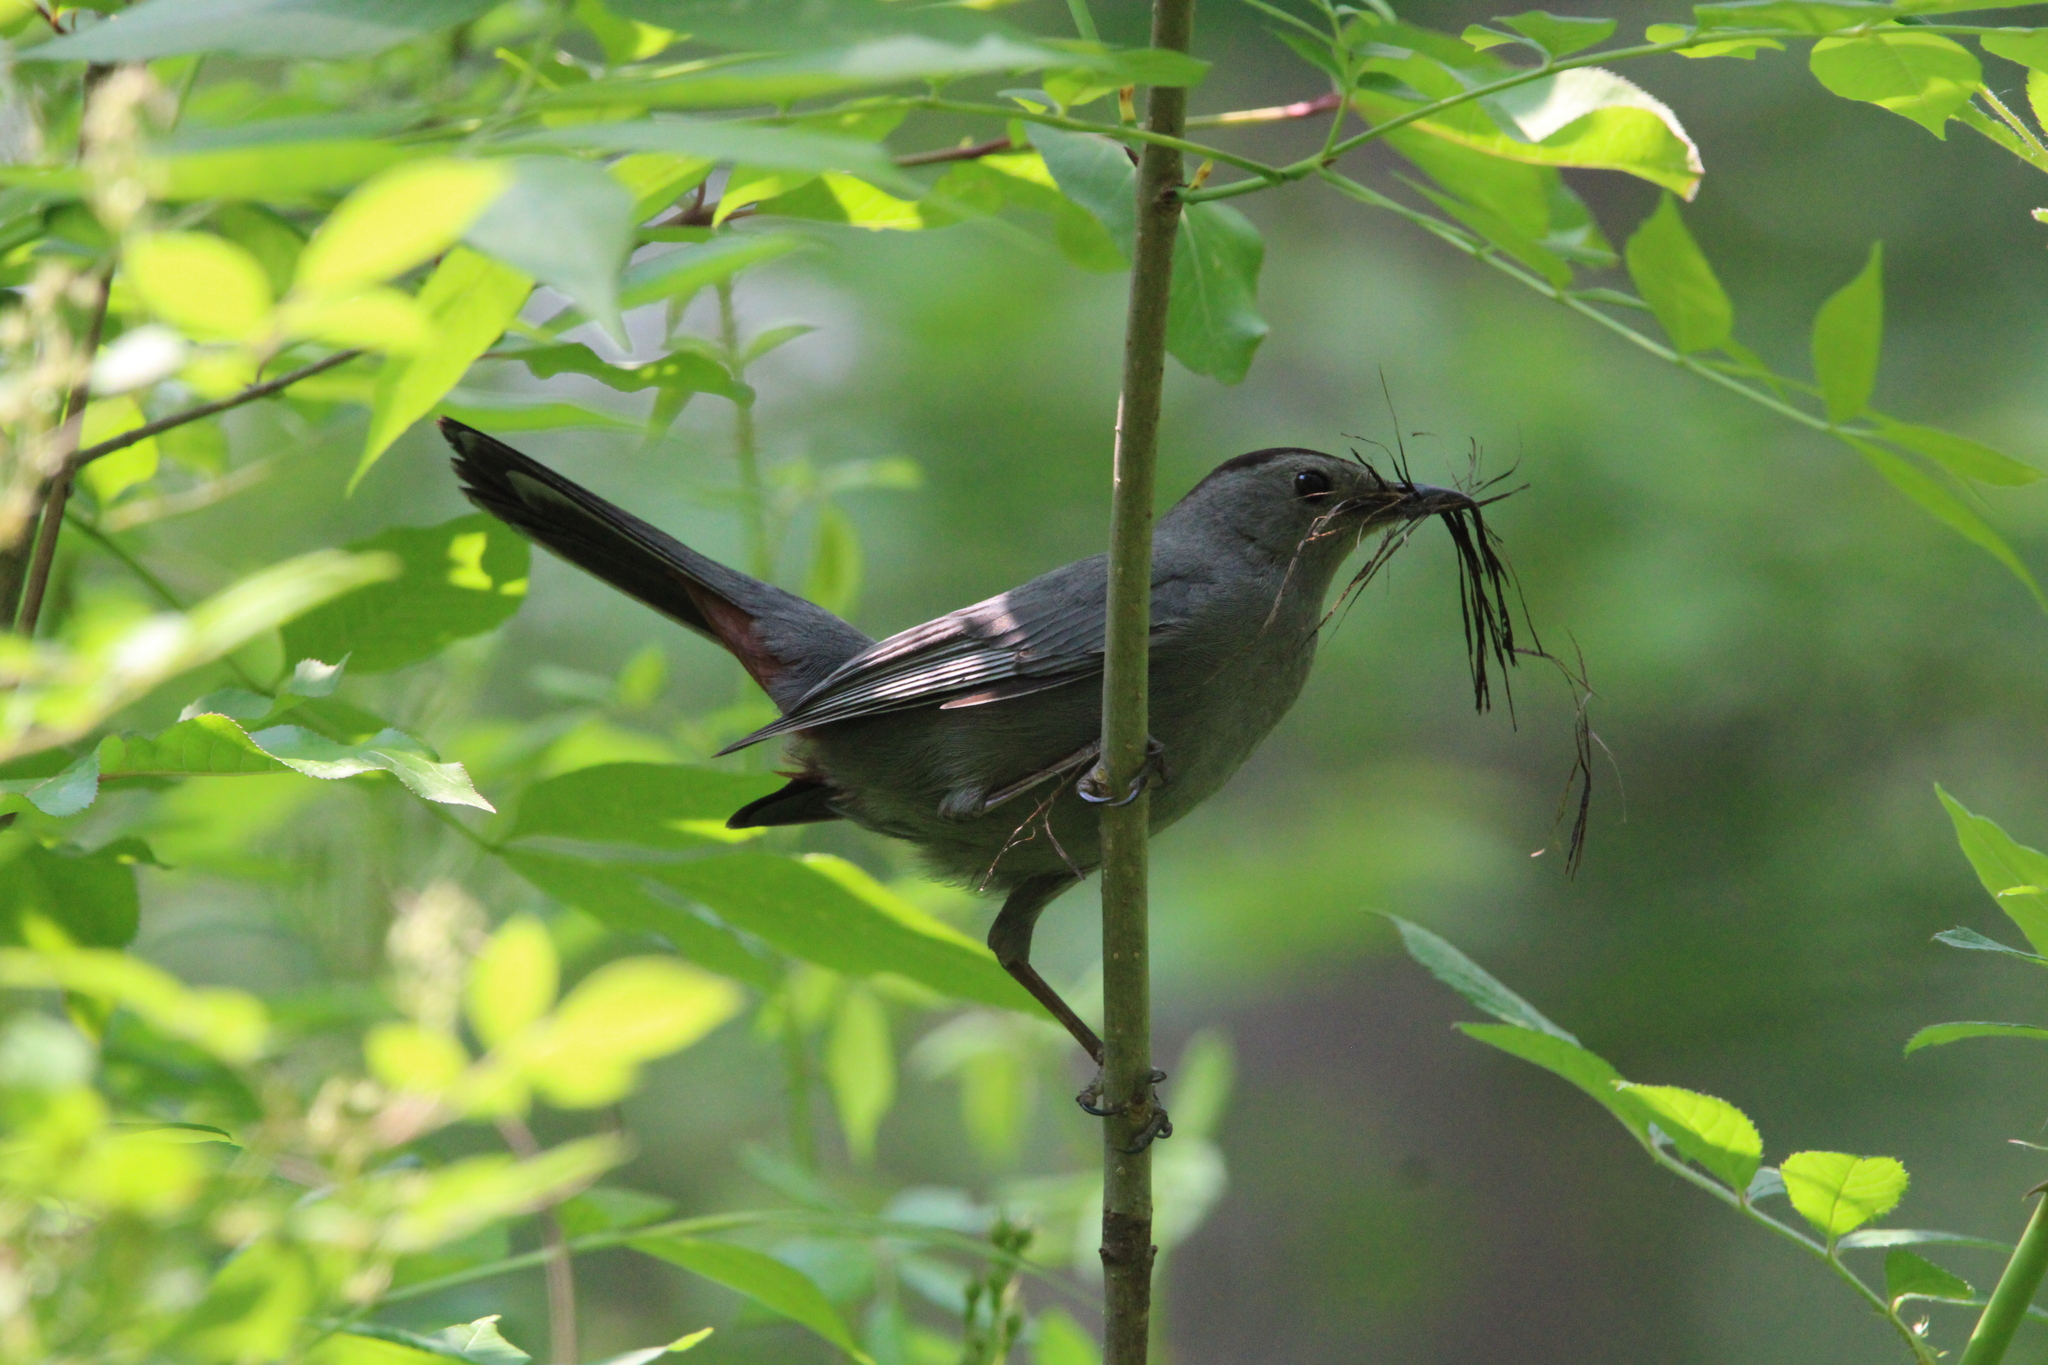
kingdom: Animalia
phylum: Chordata
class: Aves
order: Passeriformes
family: Mimidae
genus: Dumetella
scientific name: Dumetella carolinensis
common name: Gray catbird
